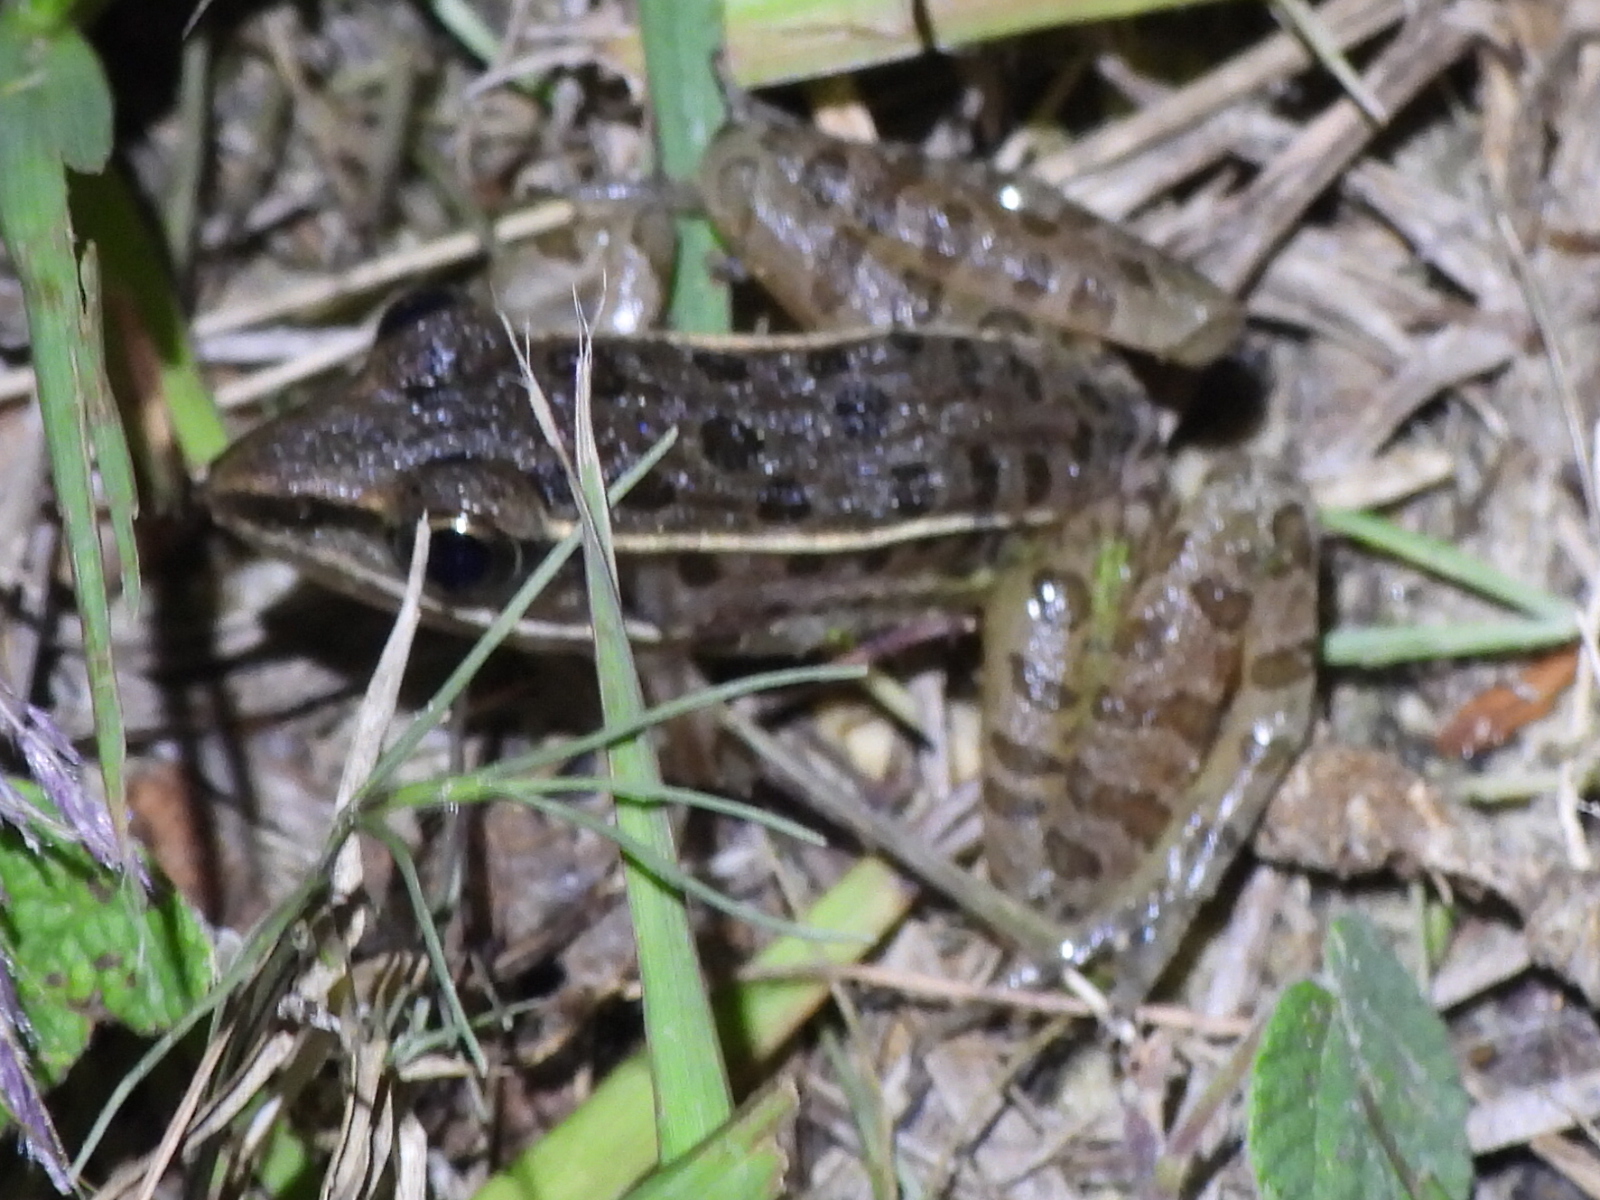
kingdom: Animalia
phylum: Chordata
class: Amphibia
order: Anura
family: Ranidae
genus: Lithobates
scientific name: Lithobates sphenocephalus
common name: Southern leopard frog
